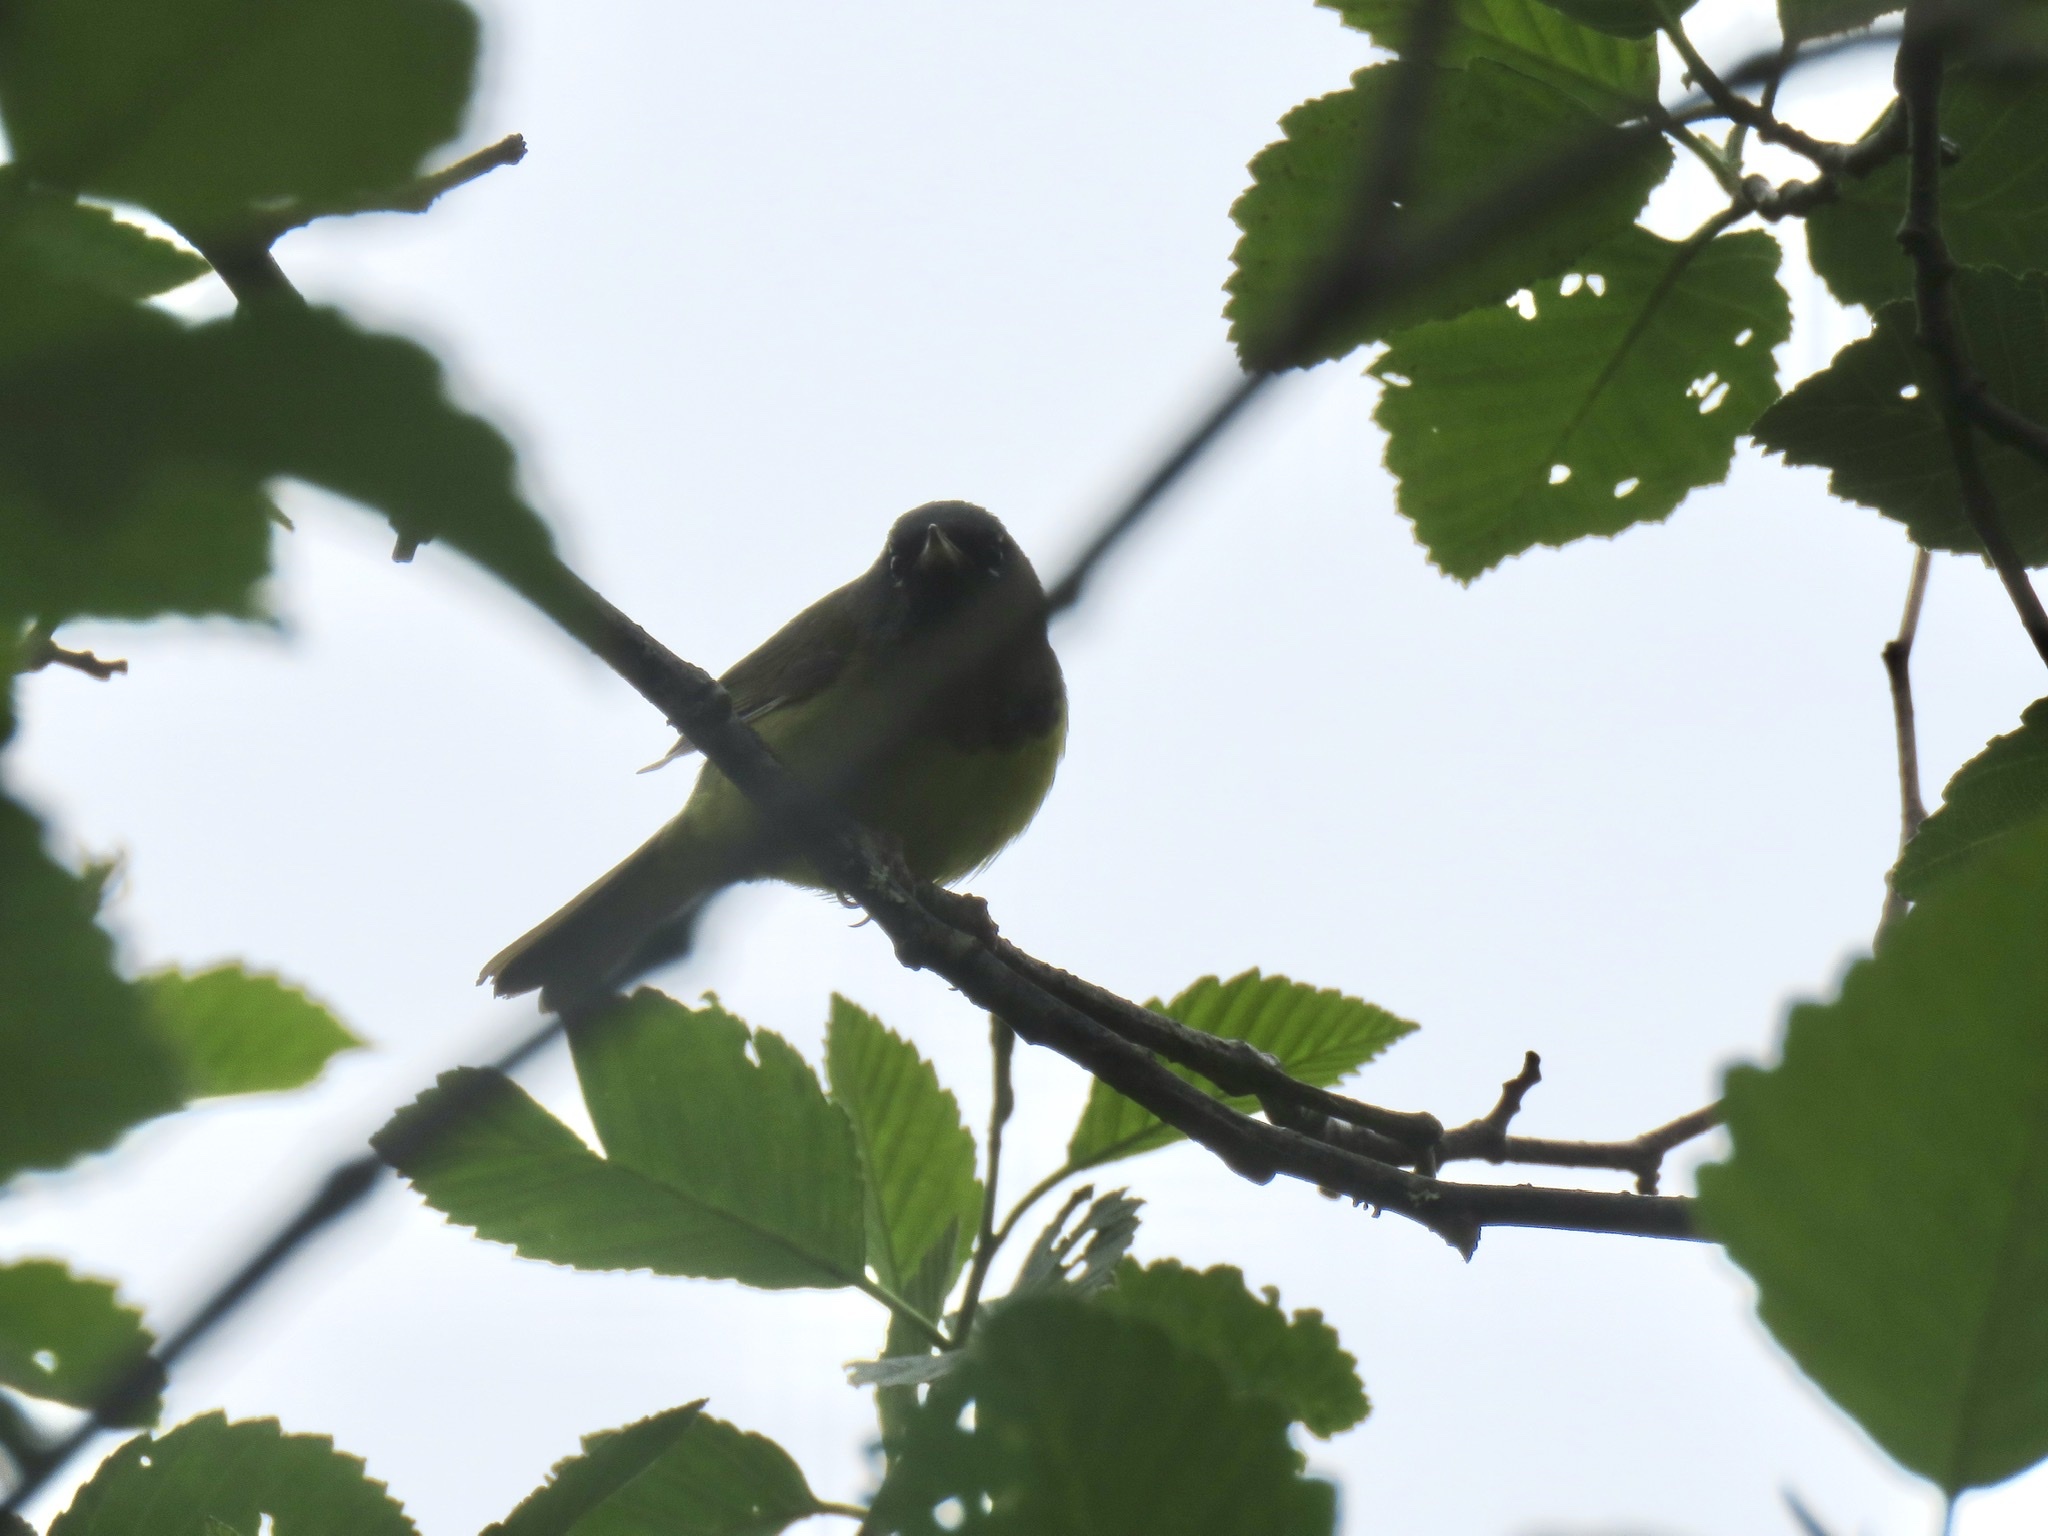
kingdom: Animalia
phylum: Chordata
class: Aves
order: Passeriformes
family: Parulidae
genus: Geothlypis
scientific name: Geothlypis tolmiei
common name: Macgillivray's warbler
